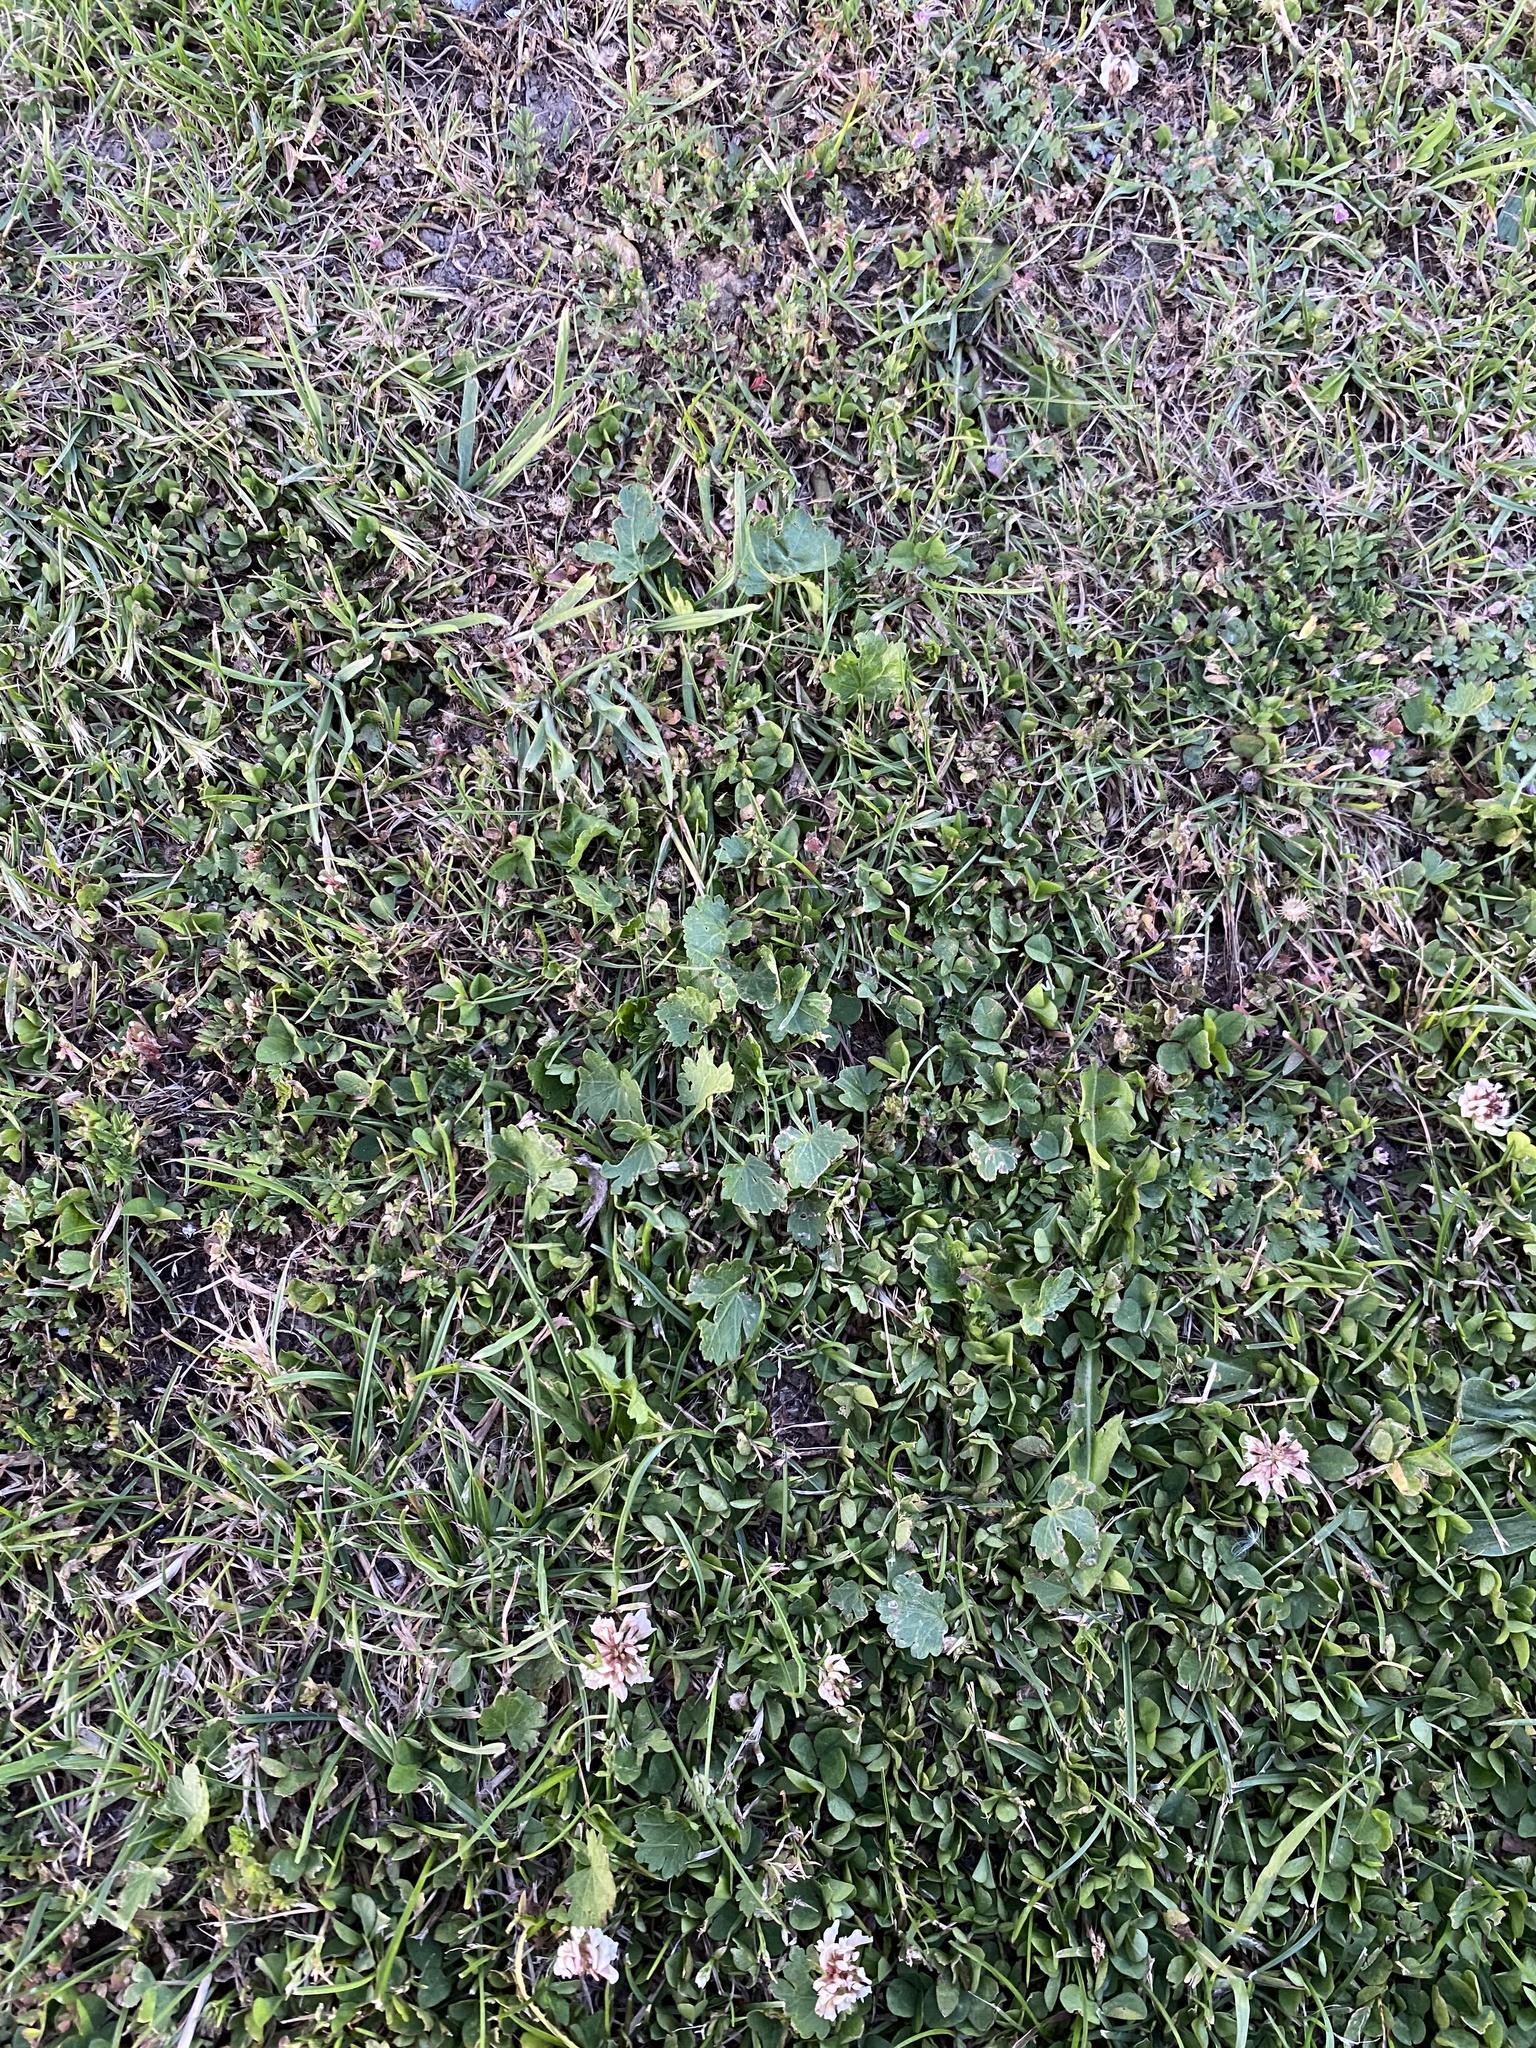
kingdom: Plantae
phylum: Tracheophyta
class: Magnoliopsida
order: Malvales
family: Malvaceae
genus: Modiola
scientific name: Modiola caroliniana
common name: Carolina bristlemallow
